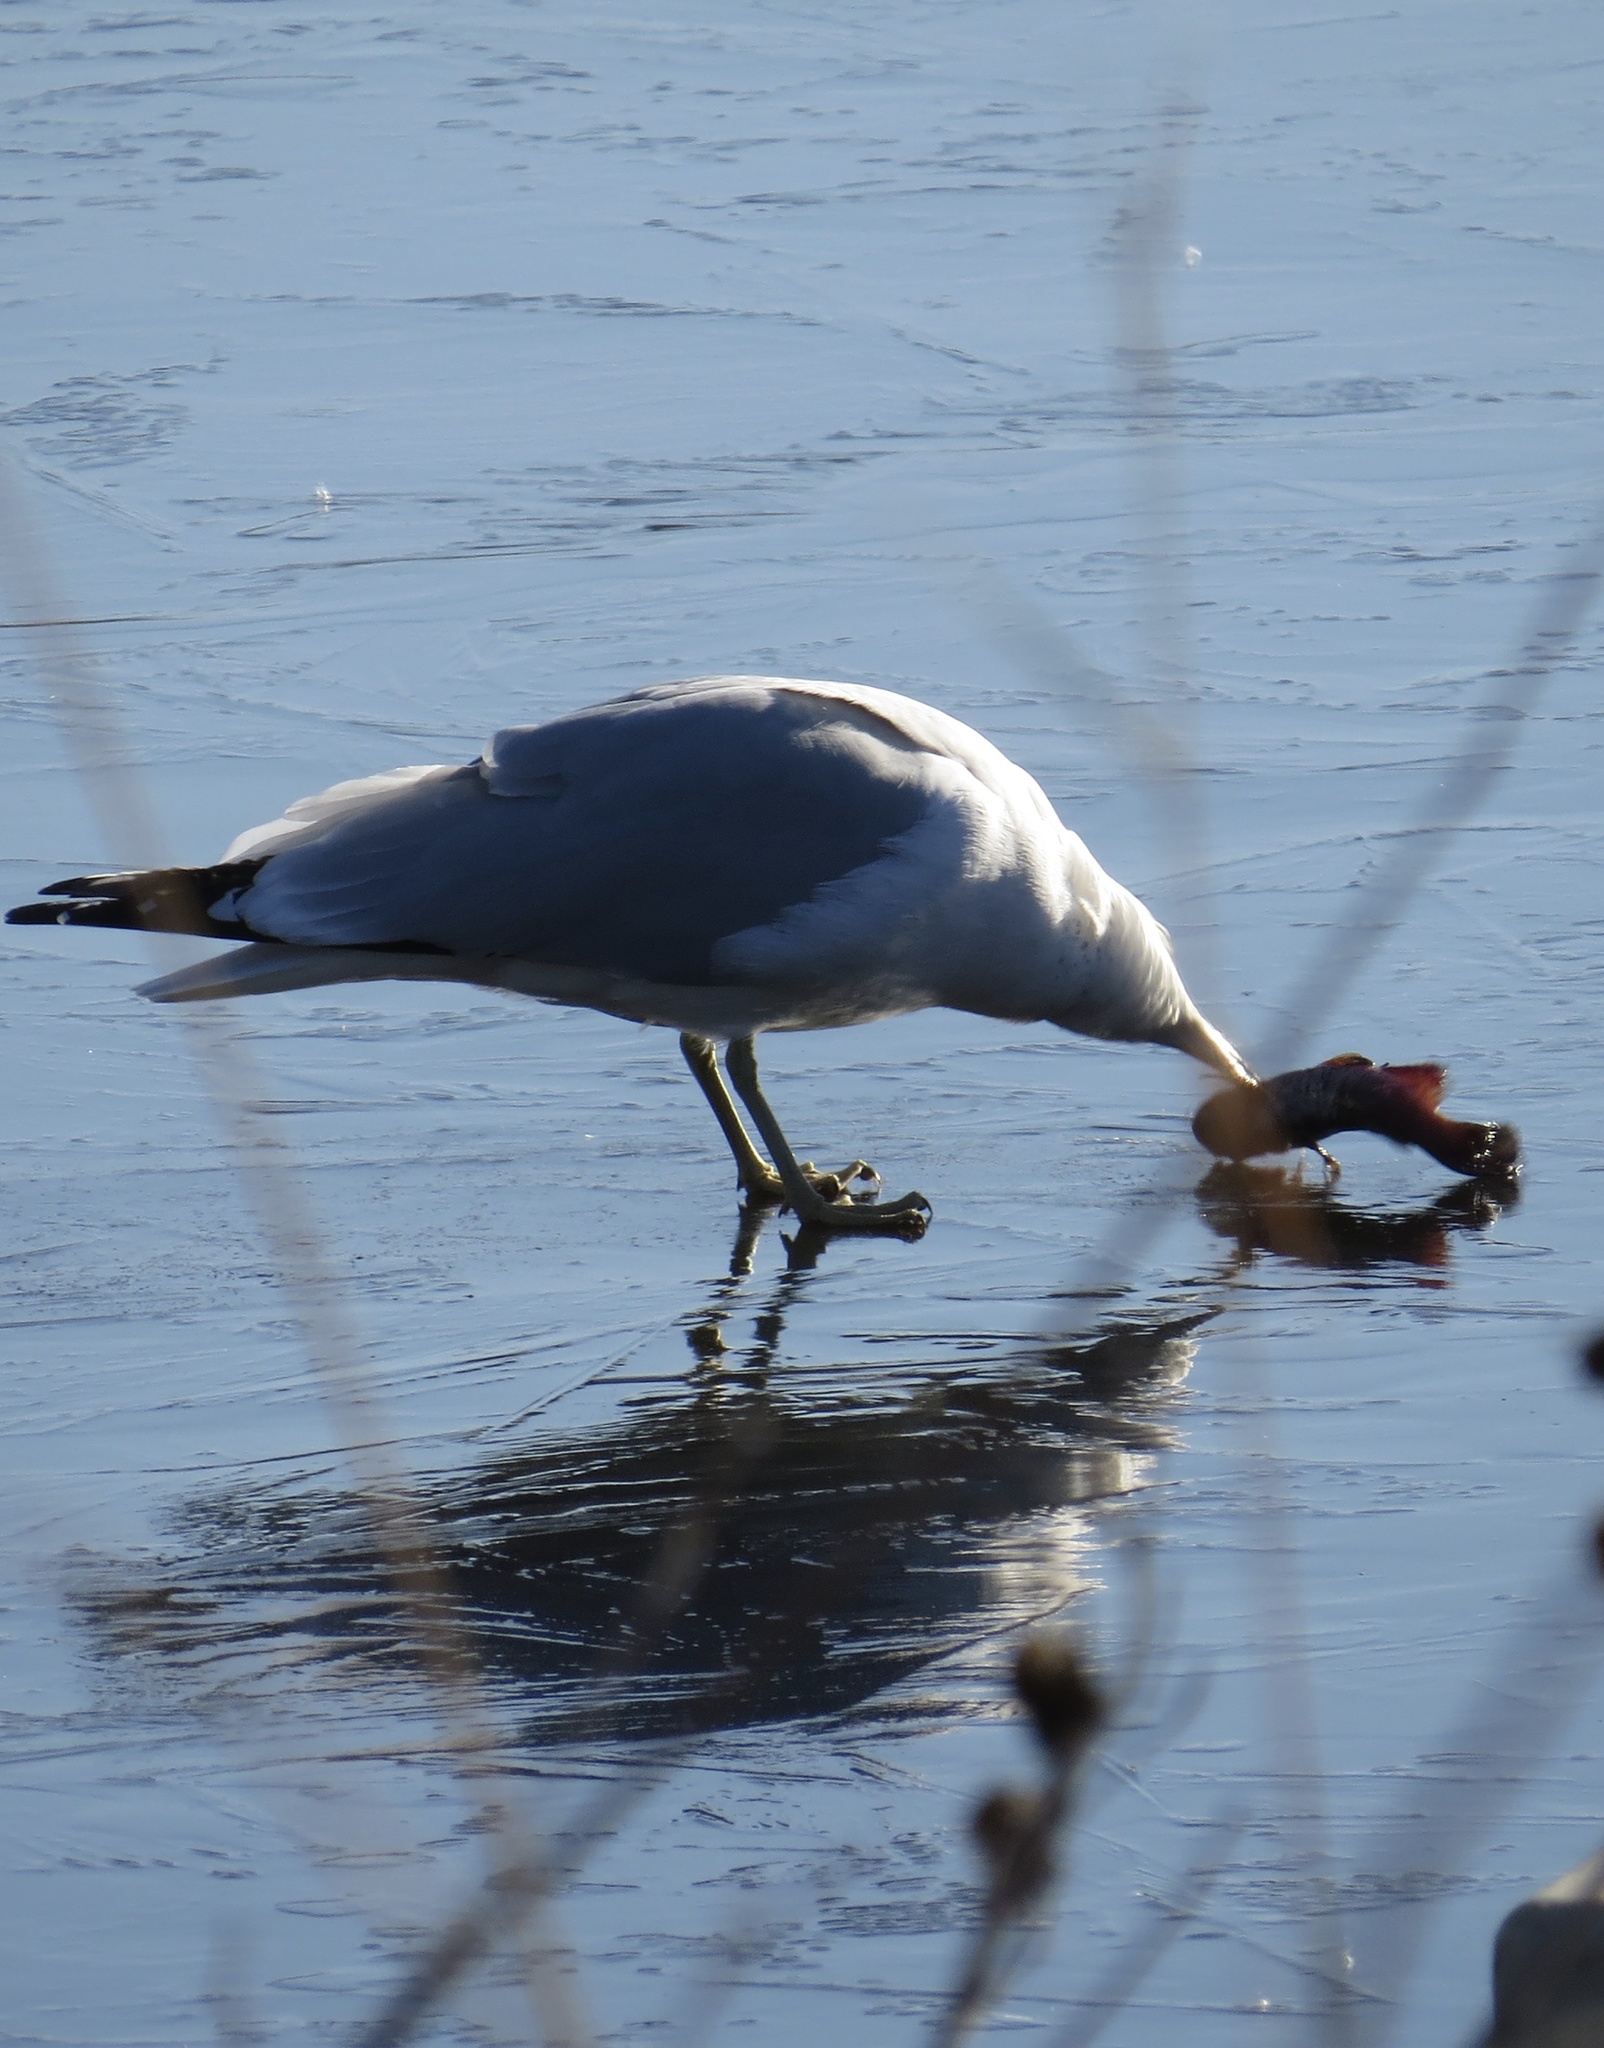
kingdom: Animalia
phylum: Chordata
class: Aves
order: Charadriiformes
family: Laridae
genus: Larus
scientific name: Larus delawarensis
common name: Ring-billed gull
